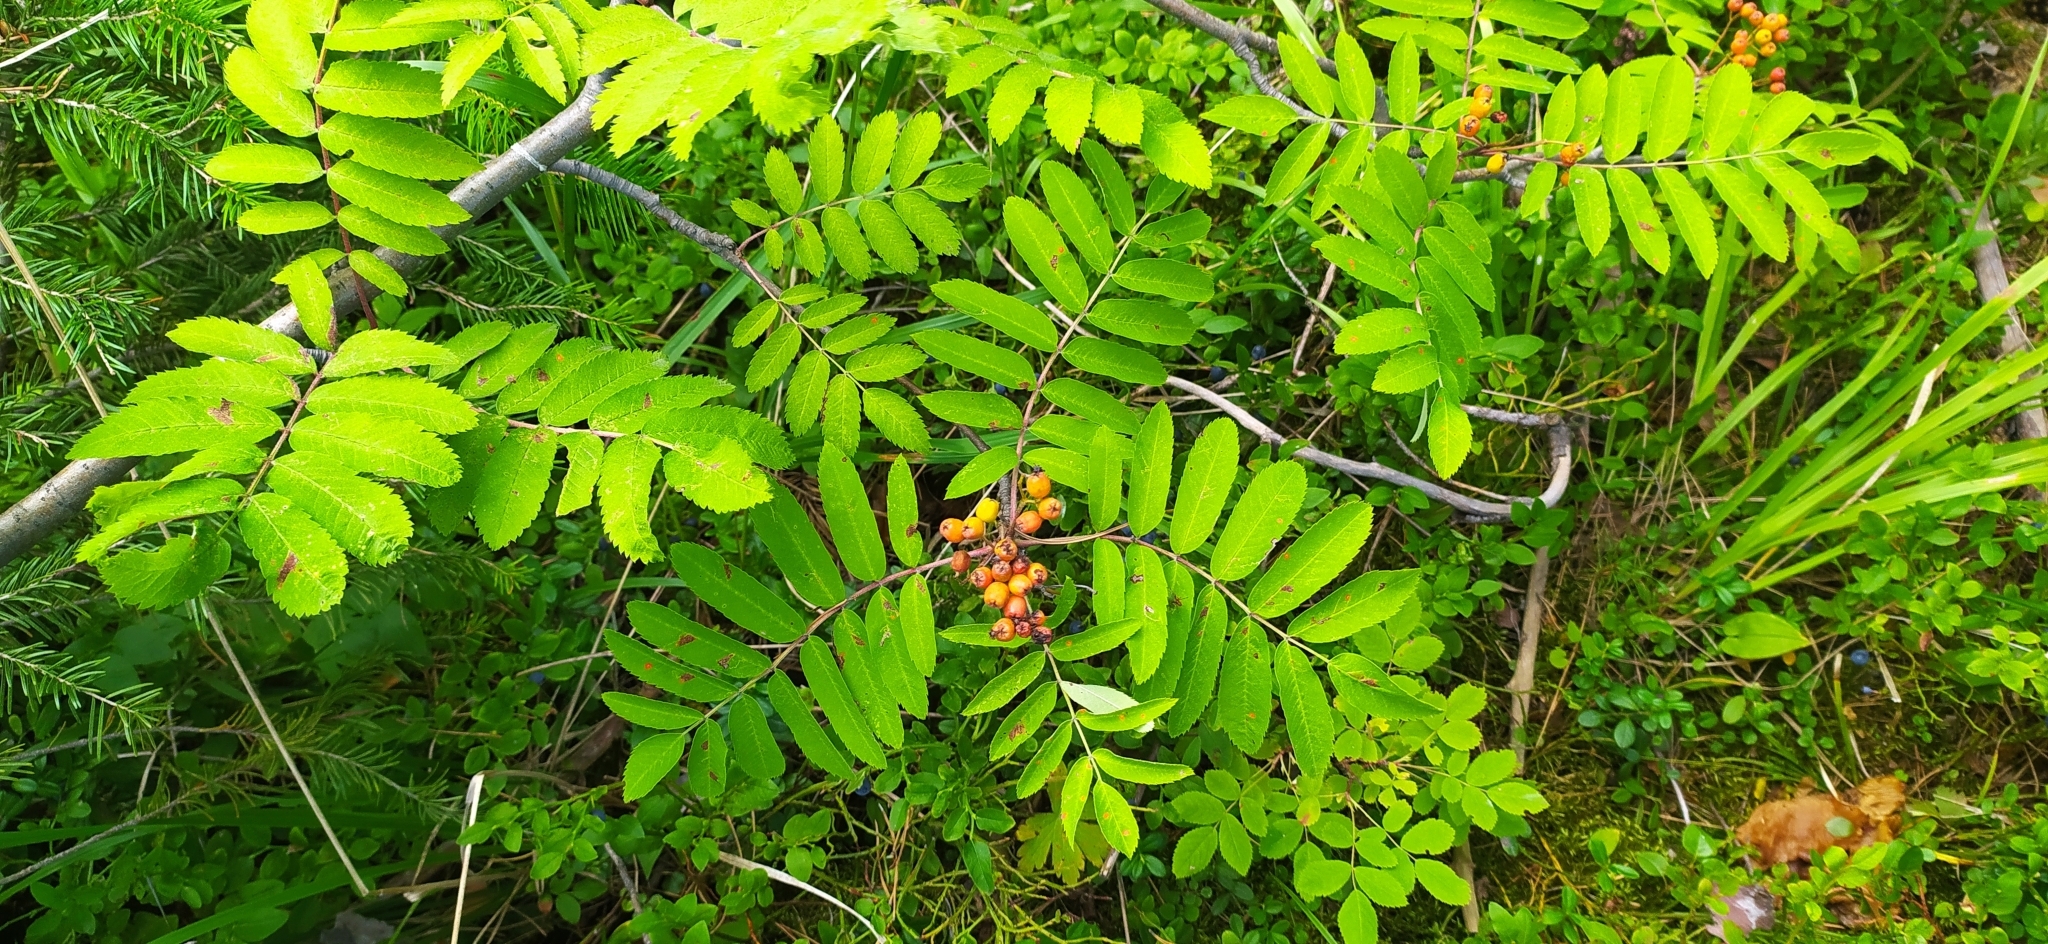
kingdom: Plantae
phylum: Tracheophyta
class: Magnoliopsida
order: Rosales
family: Rosaceae
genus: Sorbus
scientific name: Sorbus aucuparia
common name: Rowan
